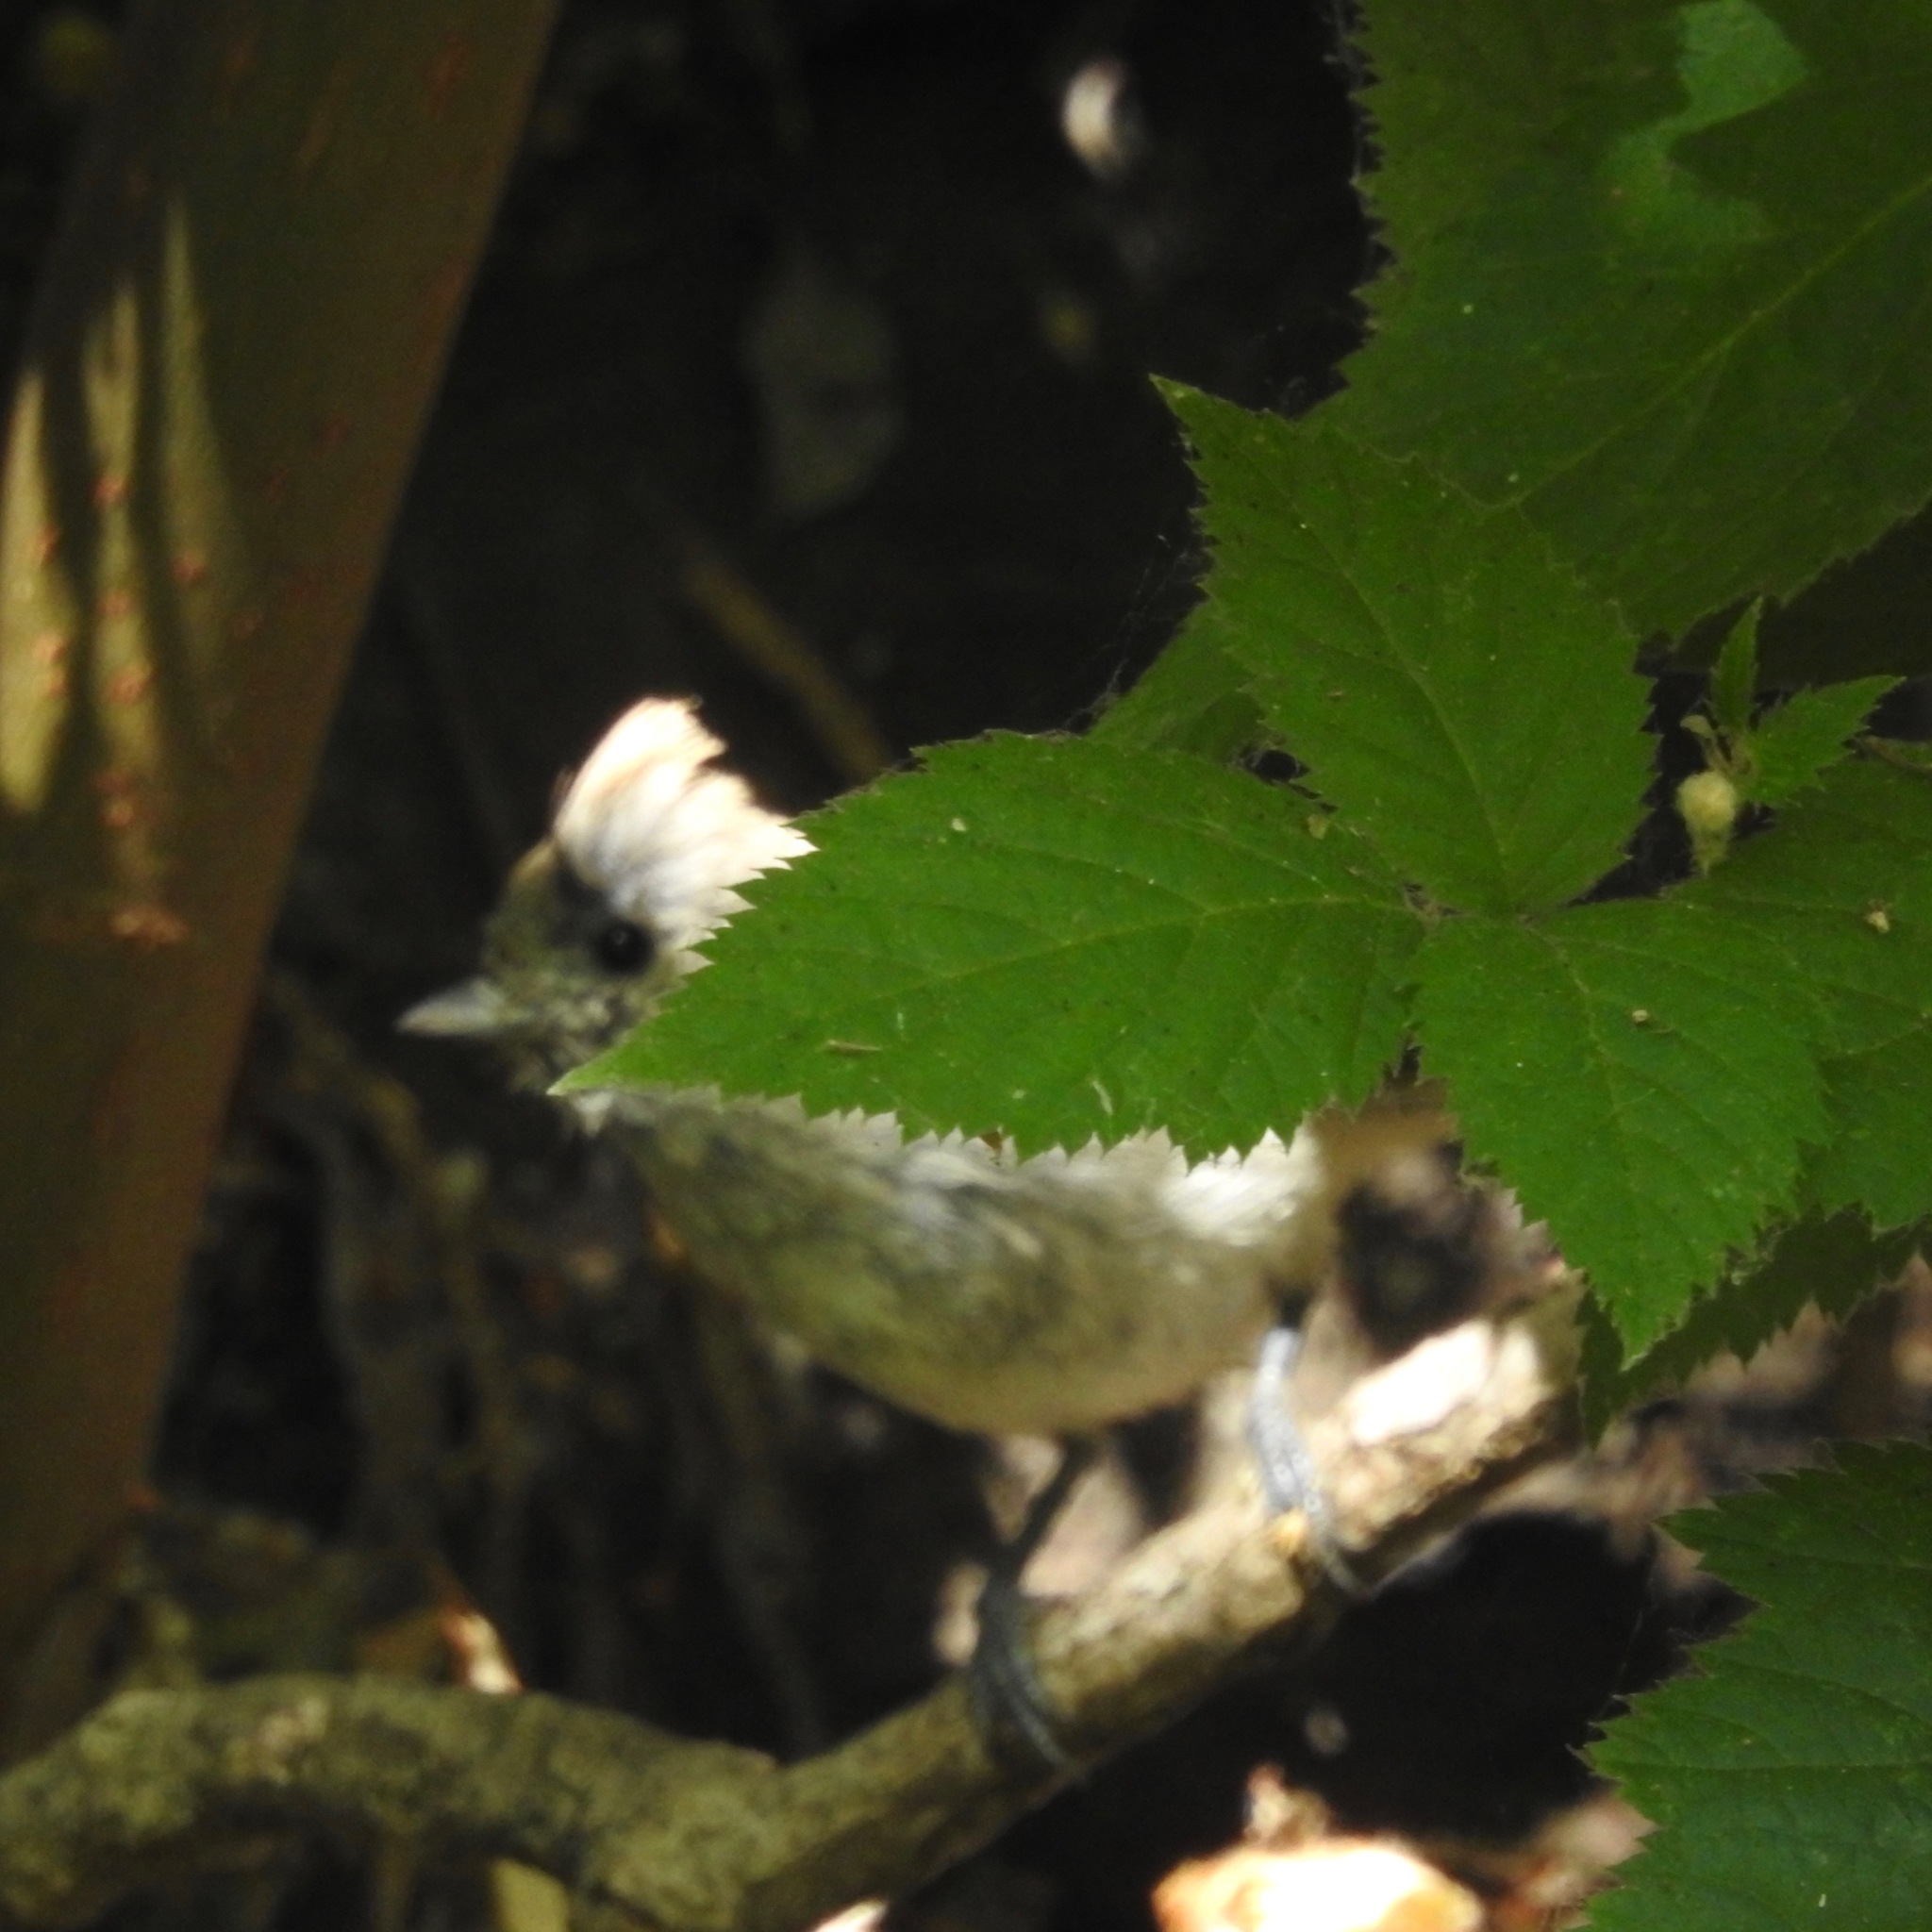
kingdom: Animalia
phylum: Chordata
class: Aves
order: Passeriformes
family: Paridae
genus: Baeolophus
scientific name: Baeolophus inornatus
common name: Oak titmouse
